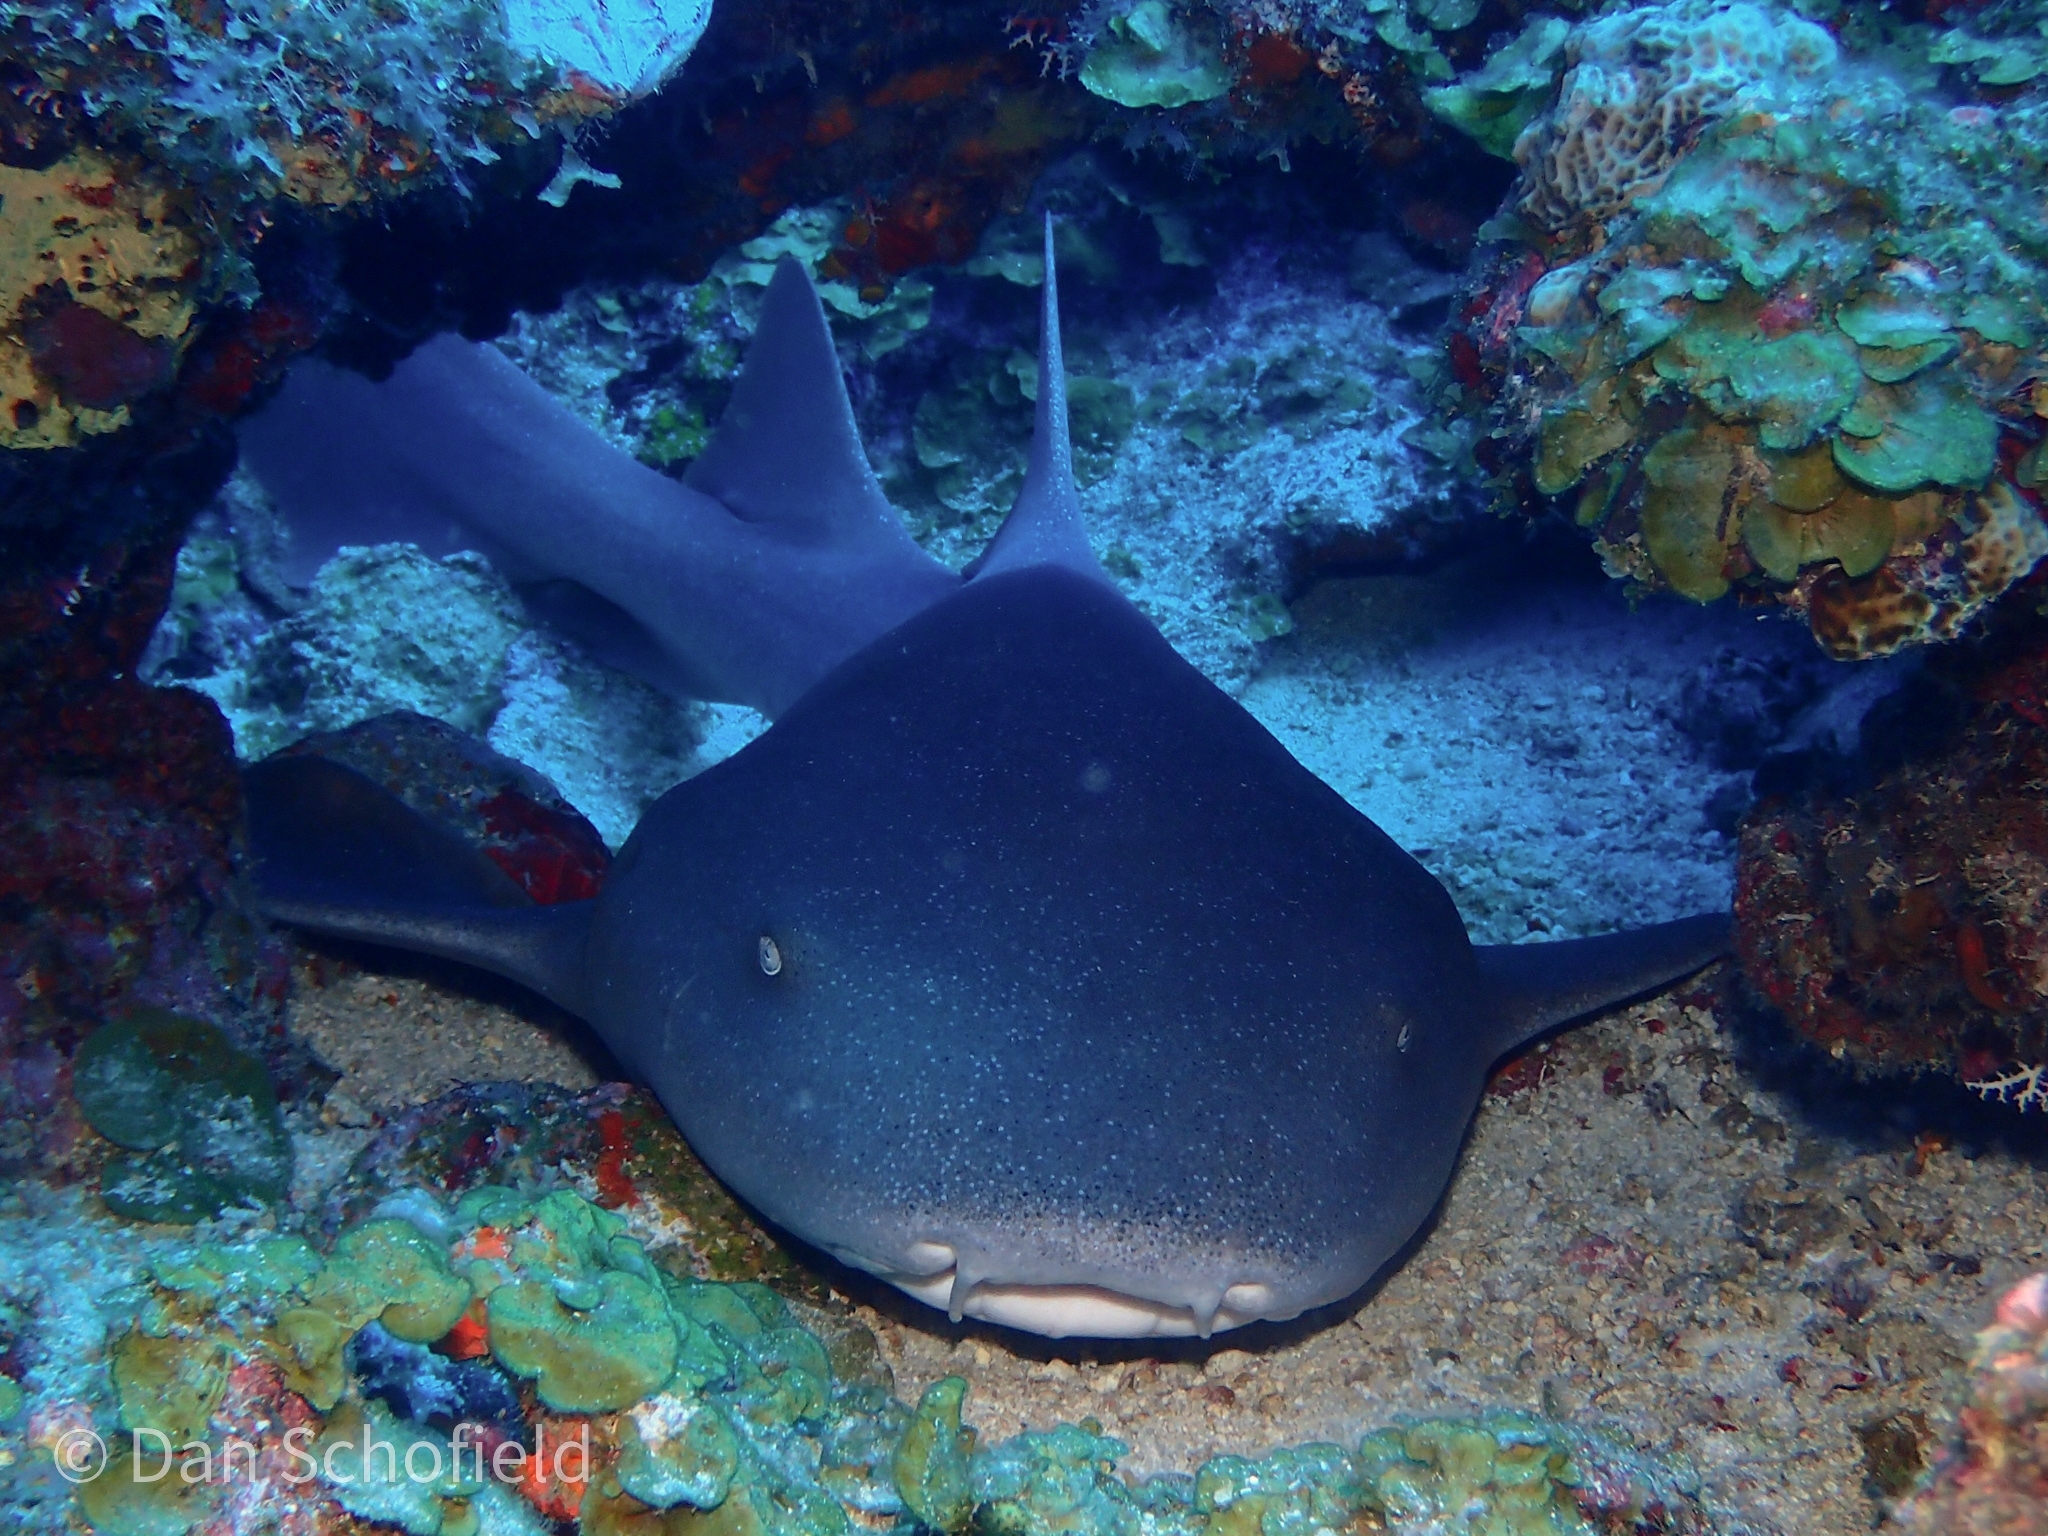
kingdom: Animalia
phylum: Chordata
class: Elasmobranchii
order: Orectolobiformes
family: Ginglymostomatidae
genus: Ginglymostoma
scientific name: Ginglymostoma cirratum
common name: Nurse shark
